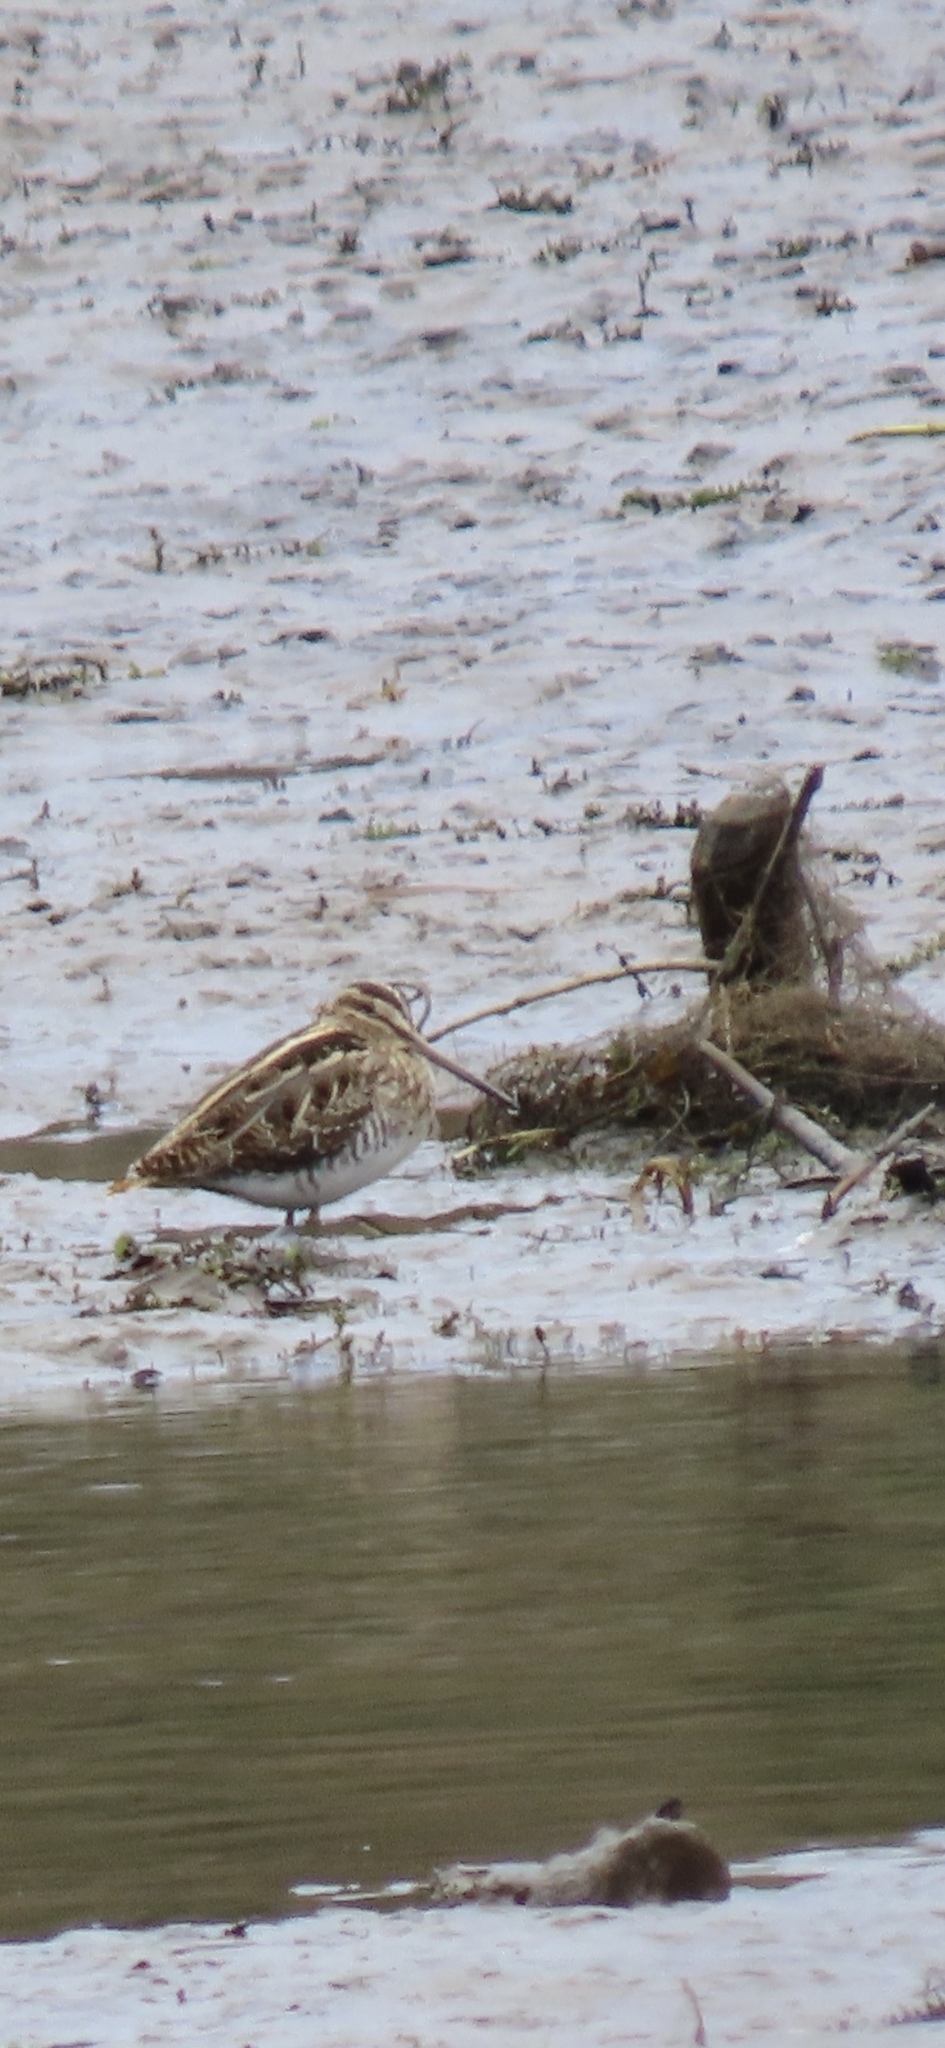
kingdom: Animalia
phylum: Chordata
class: Aves
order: Charadriiformes
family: Scolopacidae
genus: Gallinago
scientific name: Gallinago gallinago
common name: Common snipe
